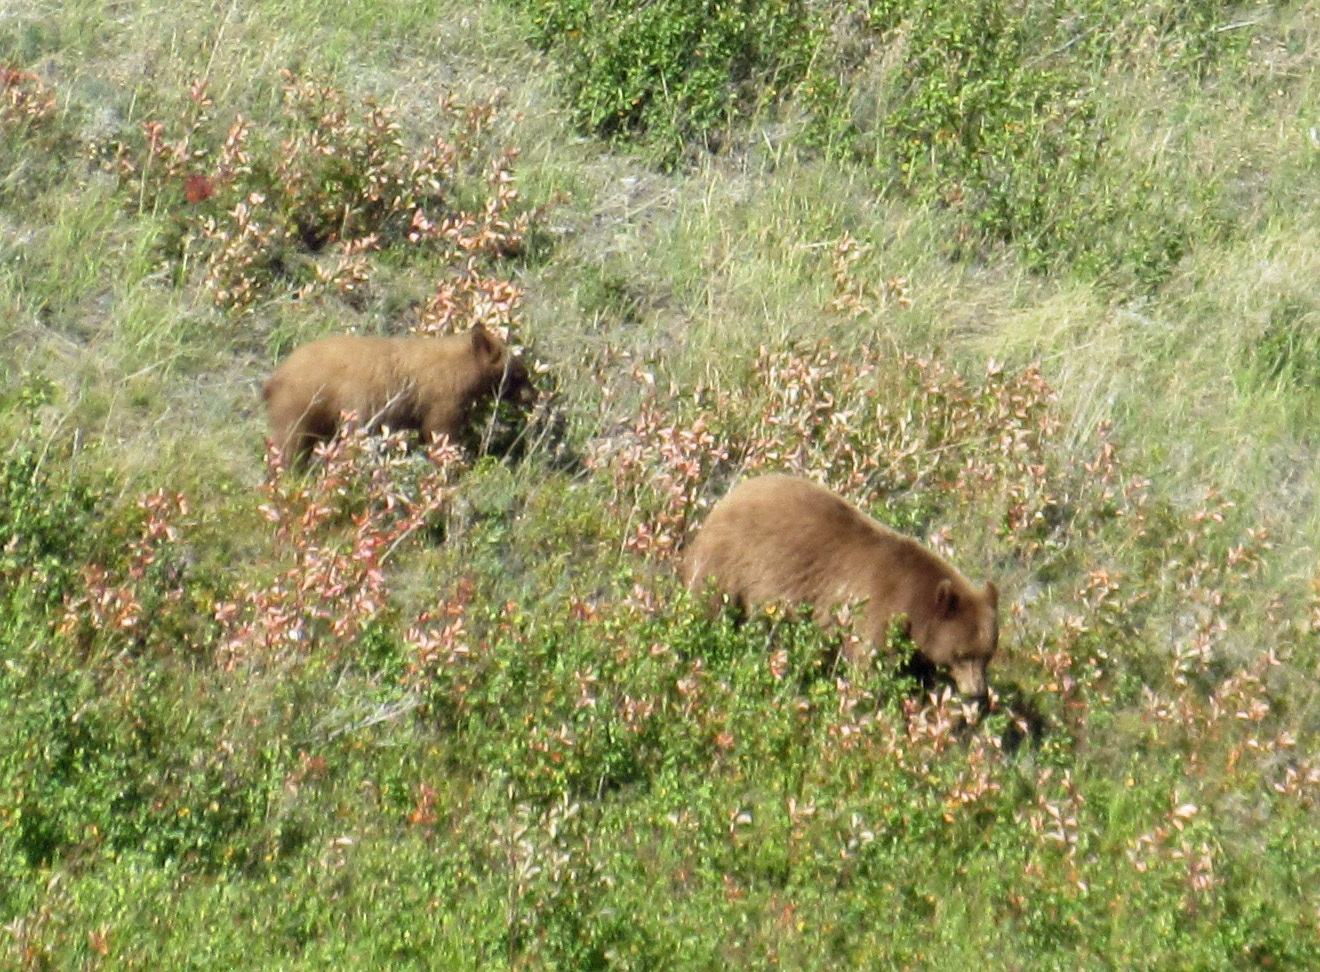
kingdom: Animalia
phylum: Chordata
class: Mammalia
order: Carnivora
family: Ursidae
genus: Ursus
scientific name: Ursus americanus
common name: American black bear
